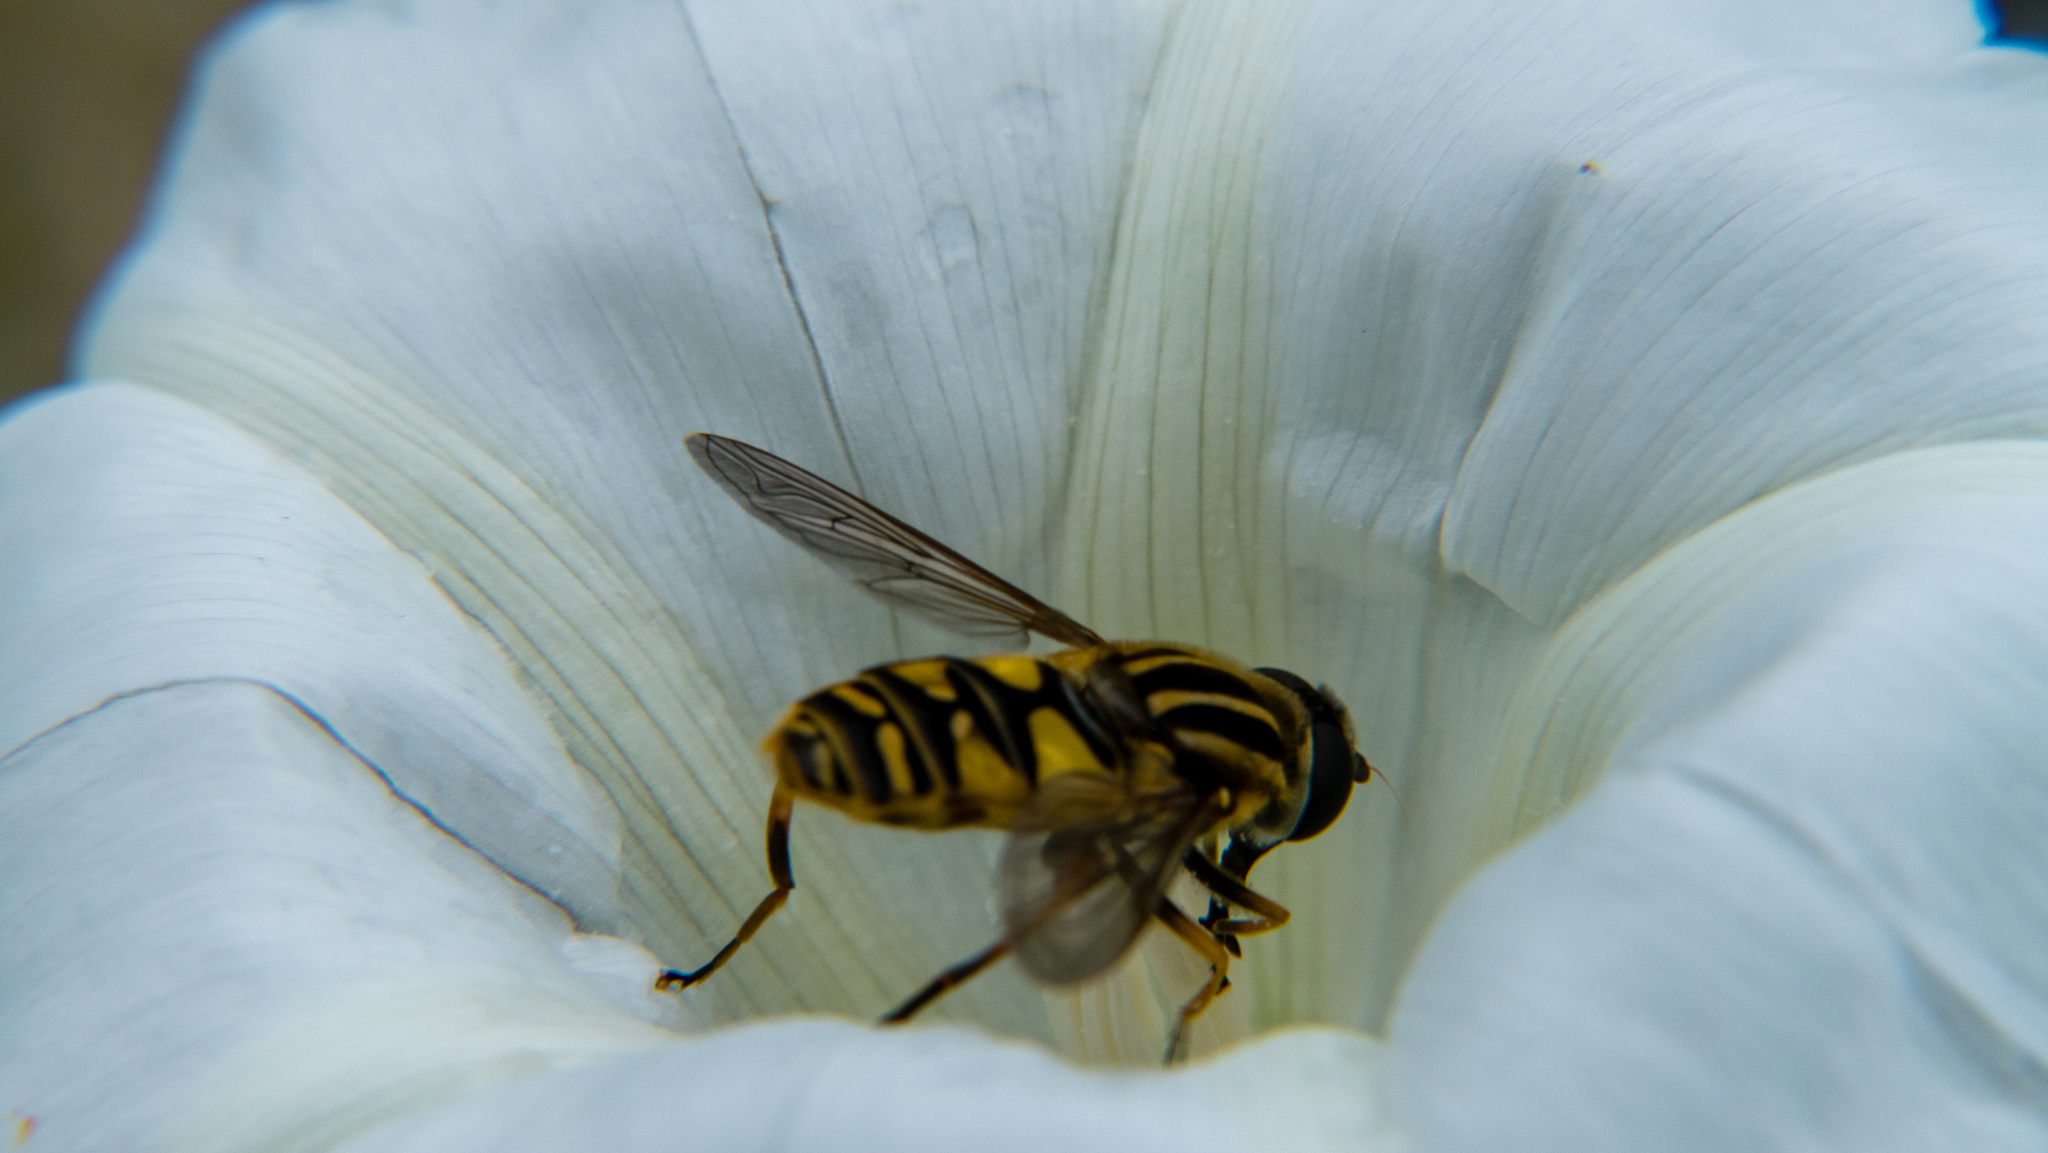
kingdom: Animalia
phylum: Arthropoda
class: Insecta
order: Diptera
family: Syrphidae
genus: Helophilus
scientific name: Helophilus pendulus
